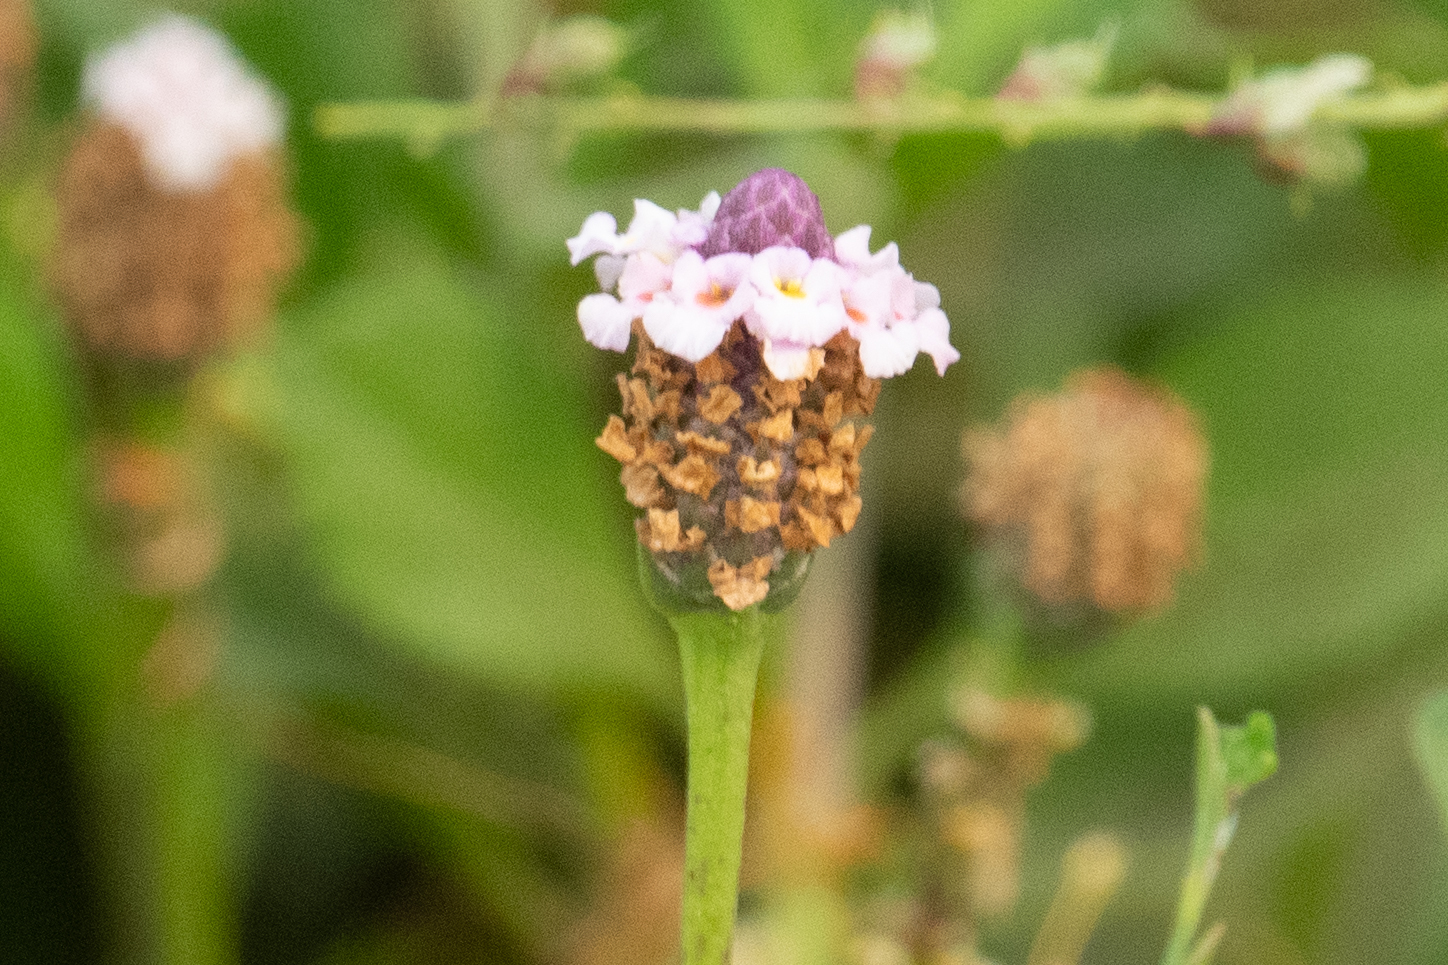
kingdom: Plantae
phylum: Tracheophyta
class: Magnoliopsida
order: Lamiales
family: Verbenaceae
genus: Phyla
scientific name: Phyla
